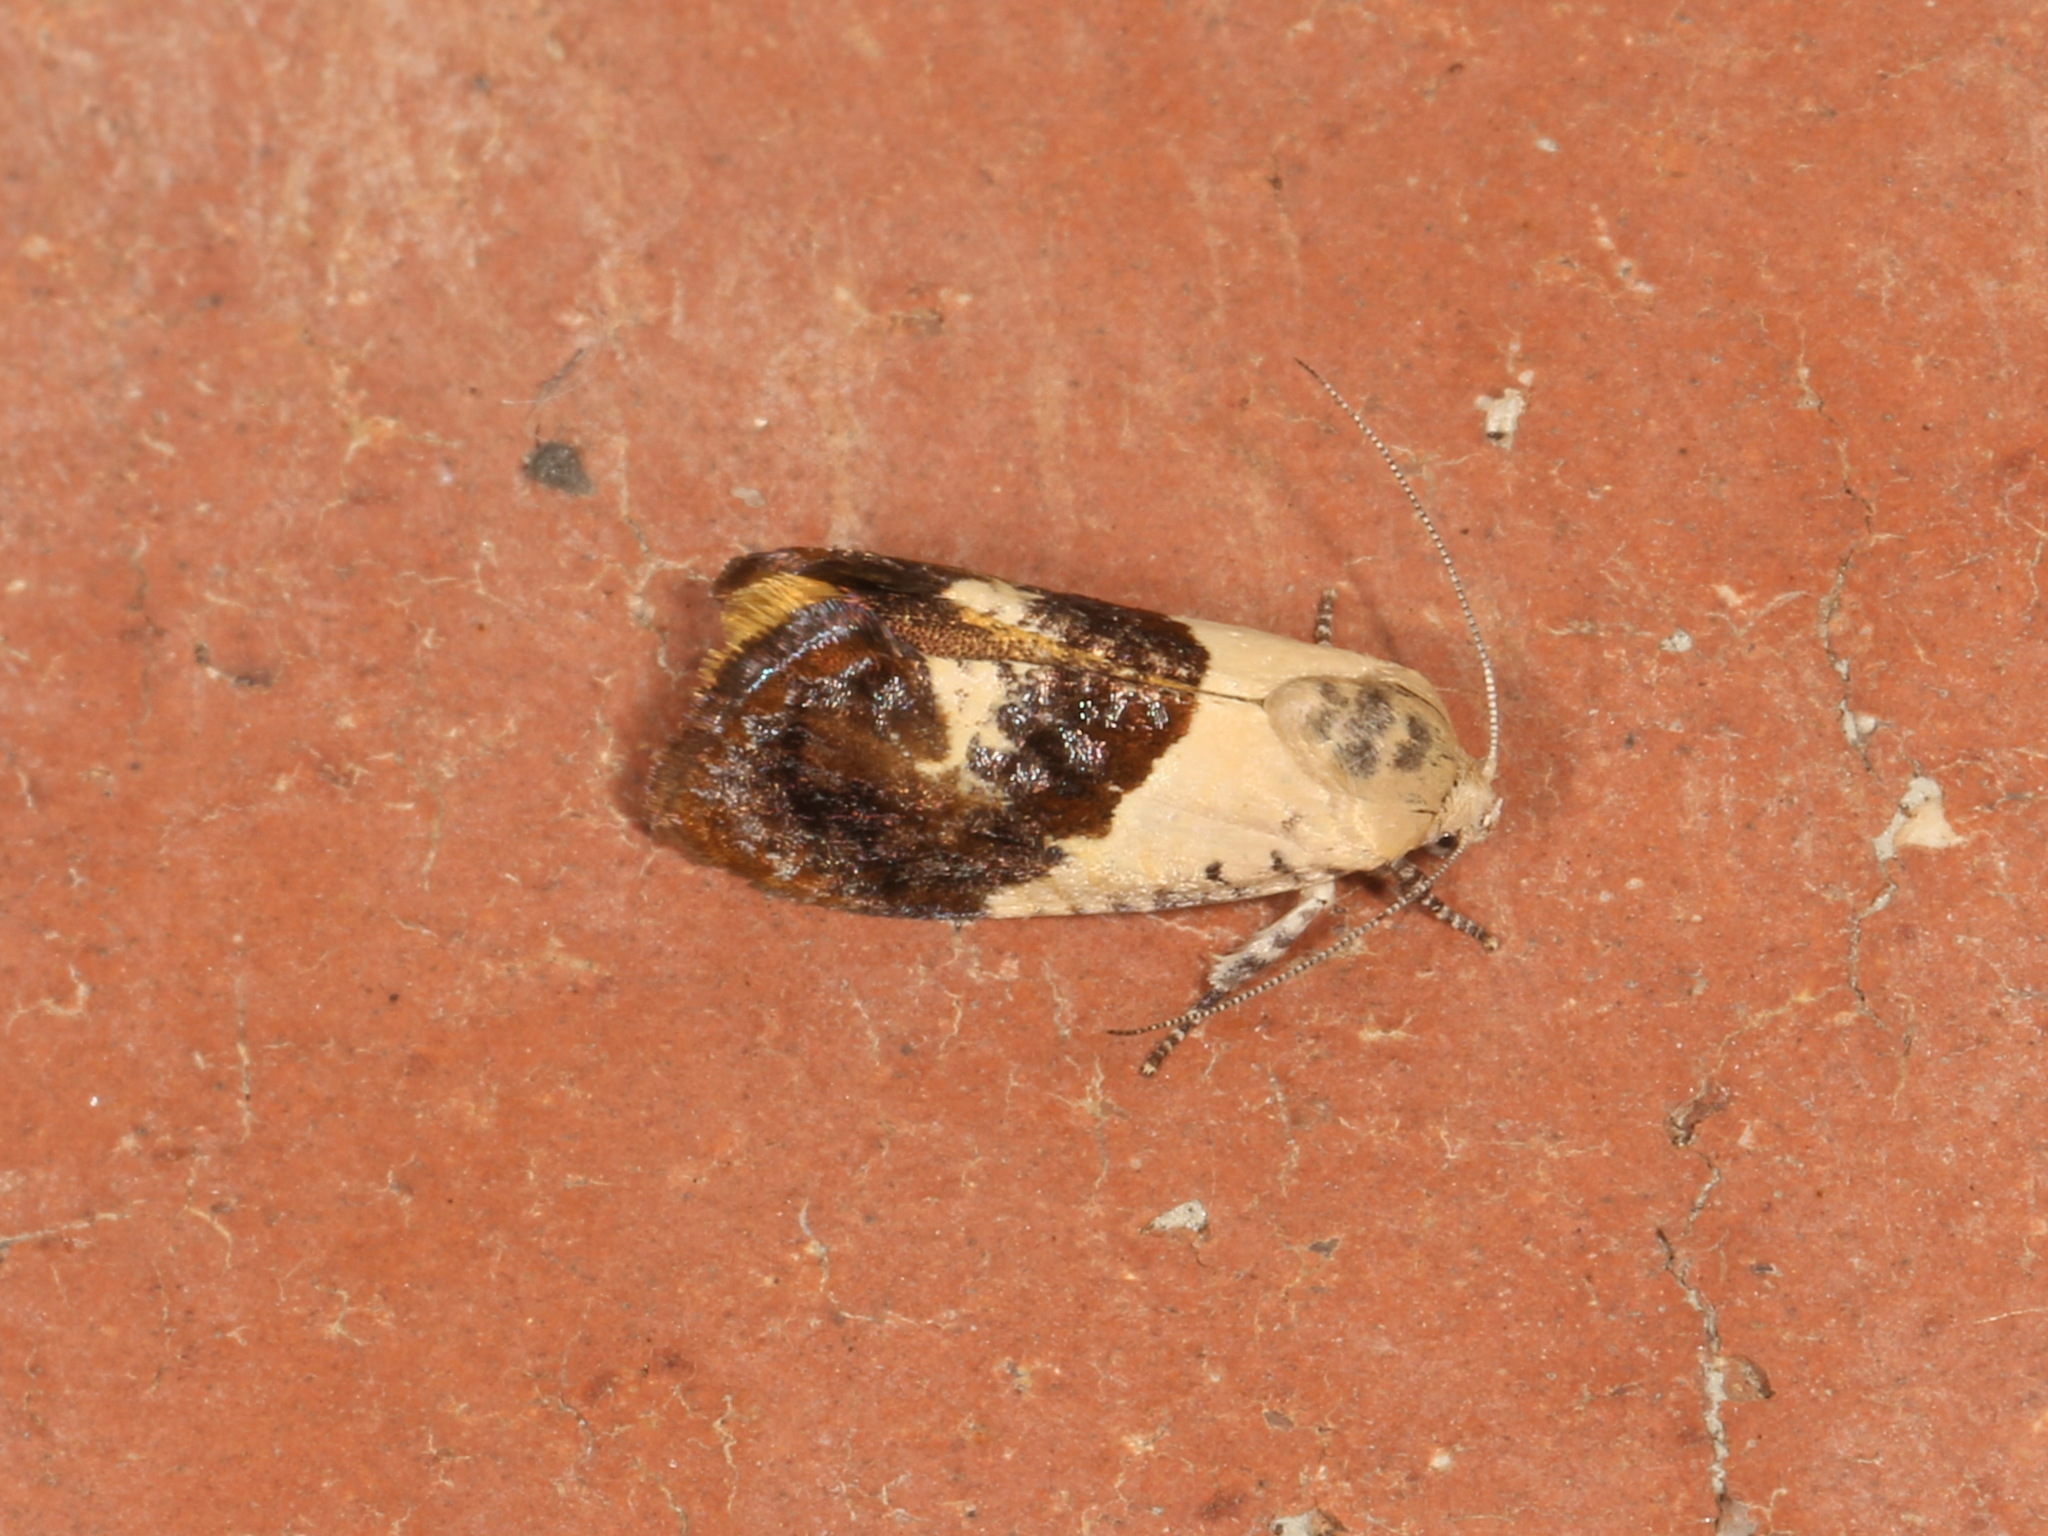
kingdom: Animalia
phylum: Arthropoda
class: Insecta
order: Lepidoptera
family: Depressariidae
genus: Hypertropha
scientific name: Hypertropha chlaenota
